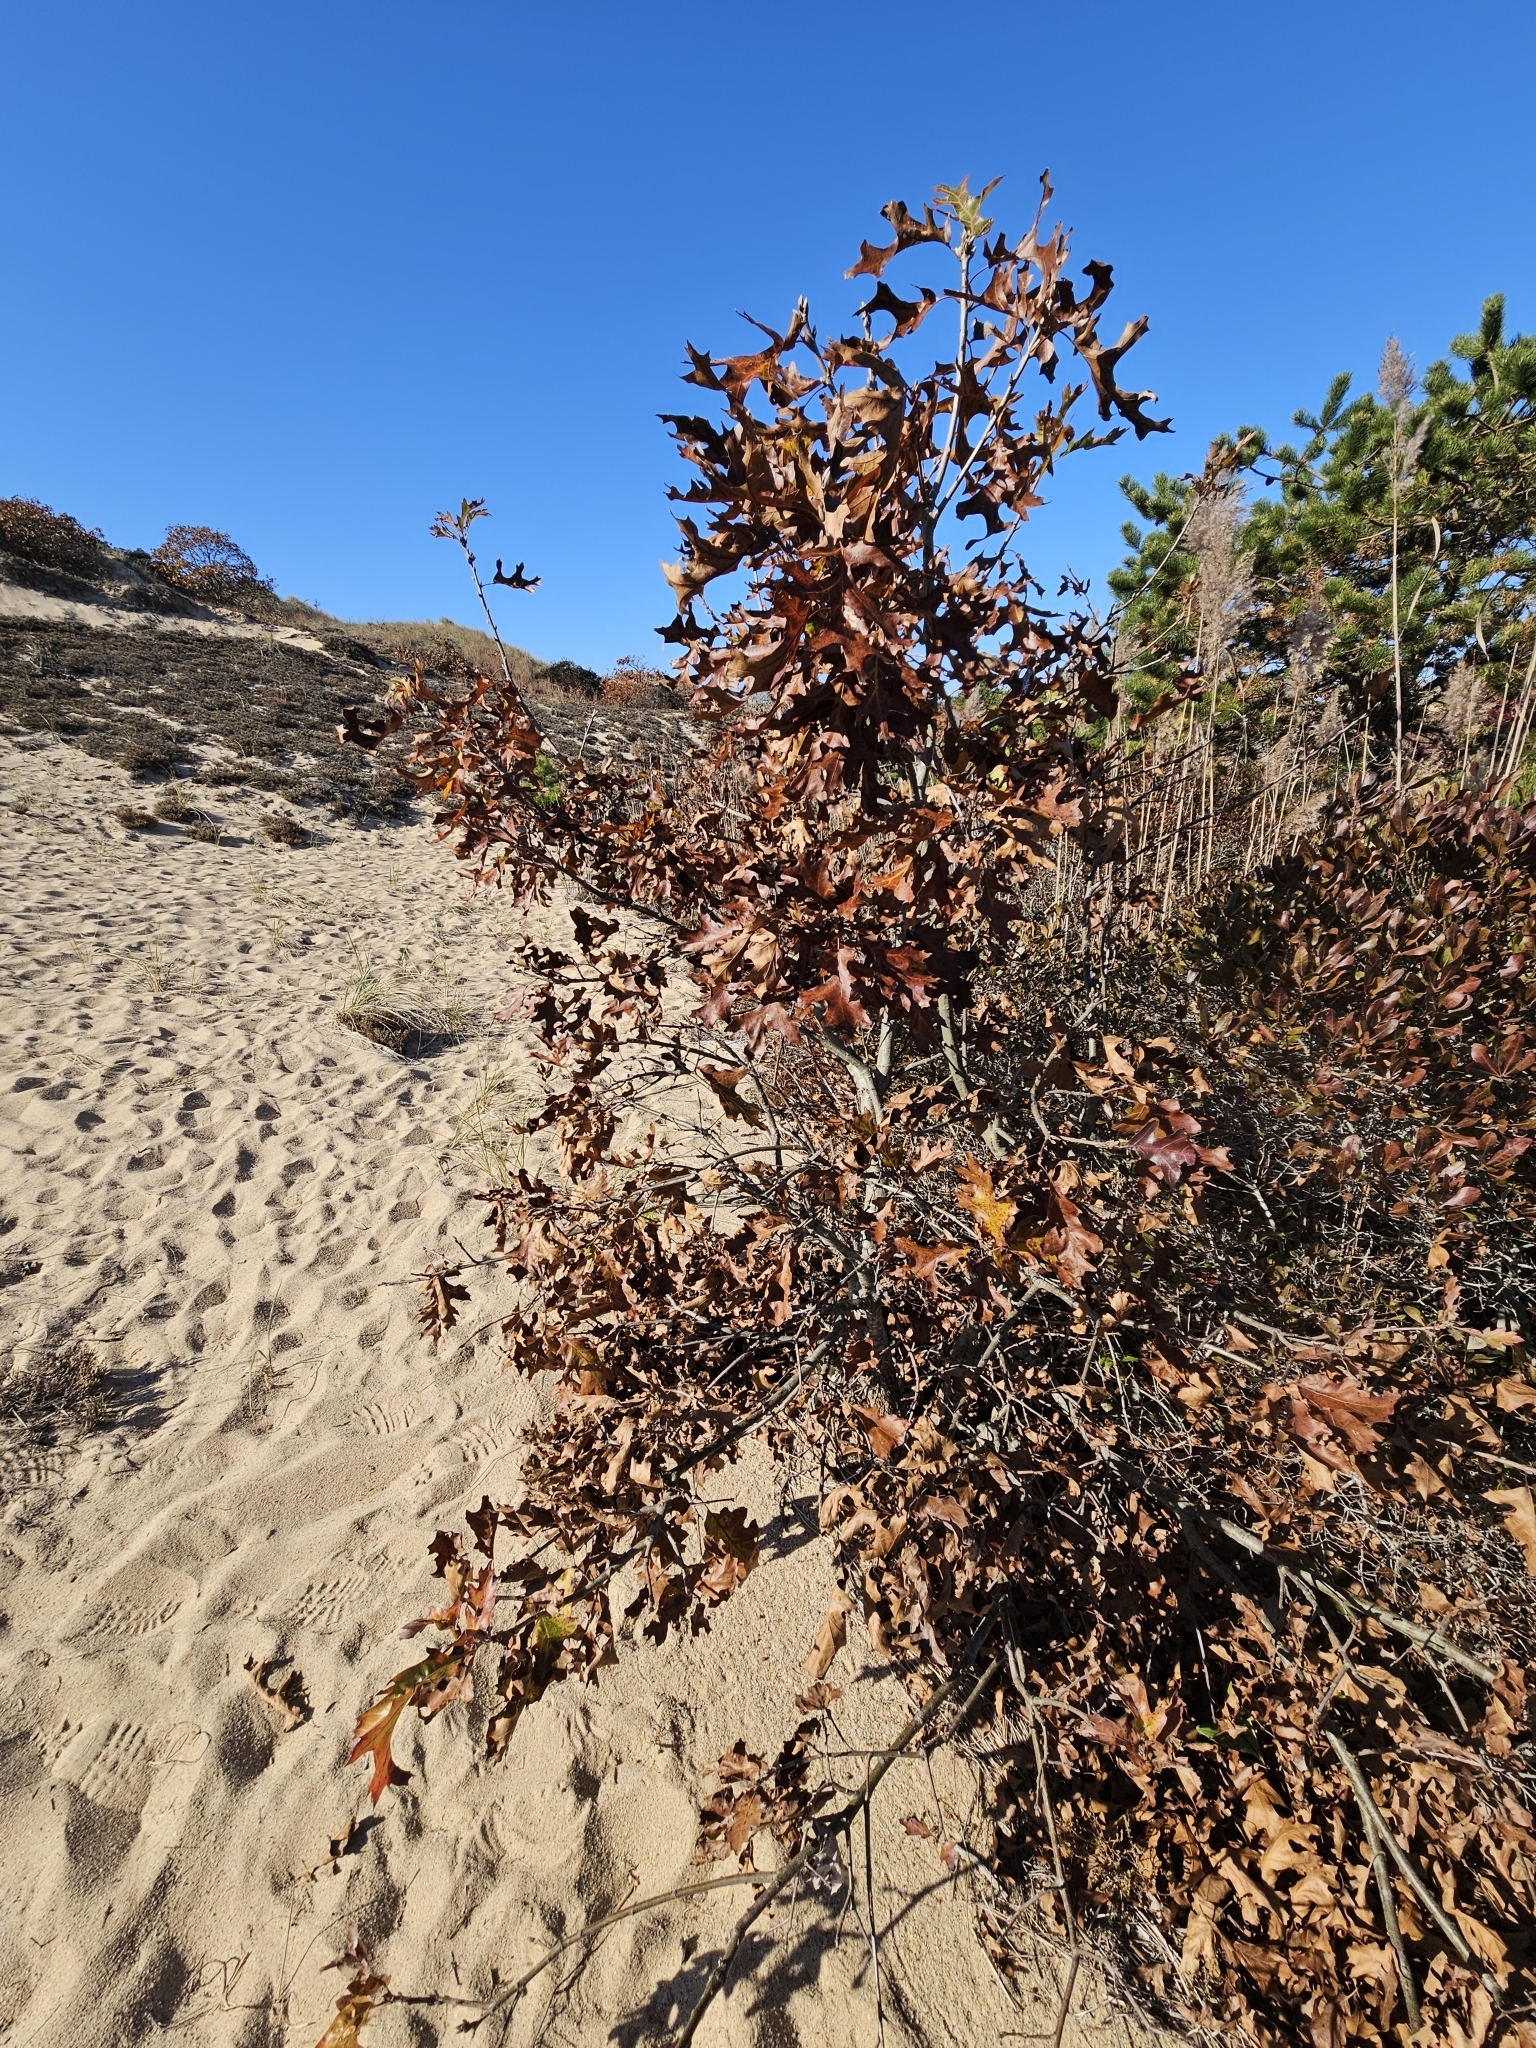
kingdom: Plantae
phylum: Tracheophyta
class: Magnoliopsida
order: Fagales
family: Fagaceae
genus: Quercus
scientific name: Quercus velutina
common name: Black oak
